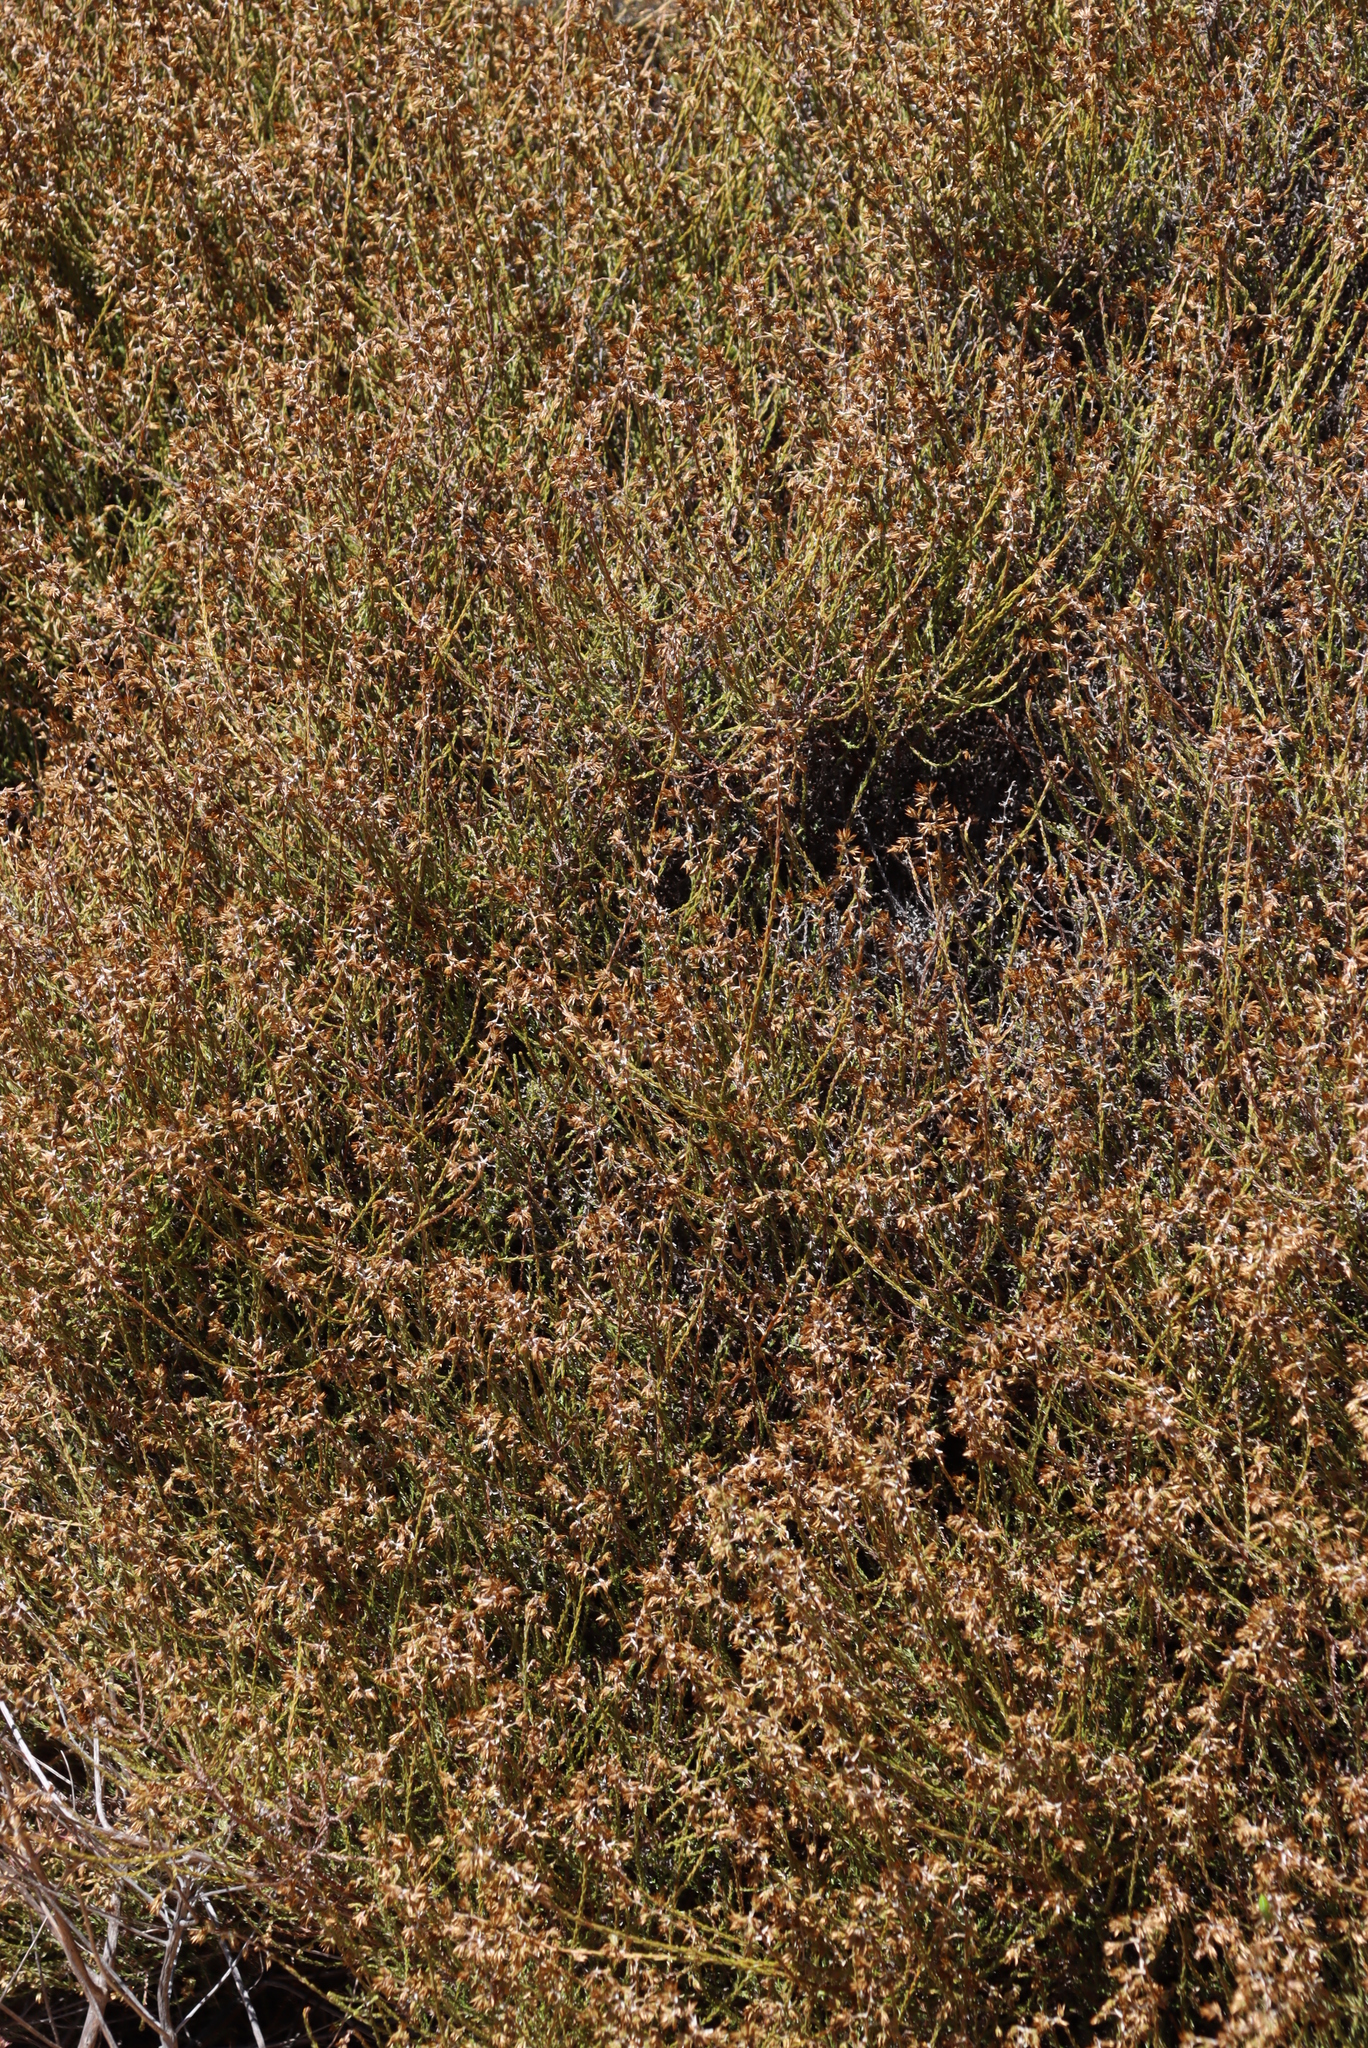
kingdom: Plantae
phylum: Tracheophyta
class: Magnoliopsida
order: Asterales
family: Asteraceae
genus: Myrovernix
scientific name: Myrovernix scaber
